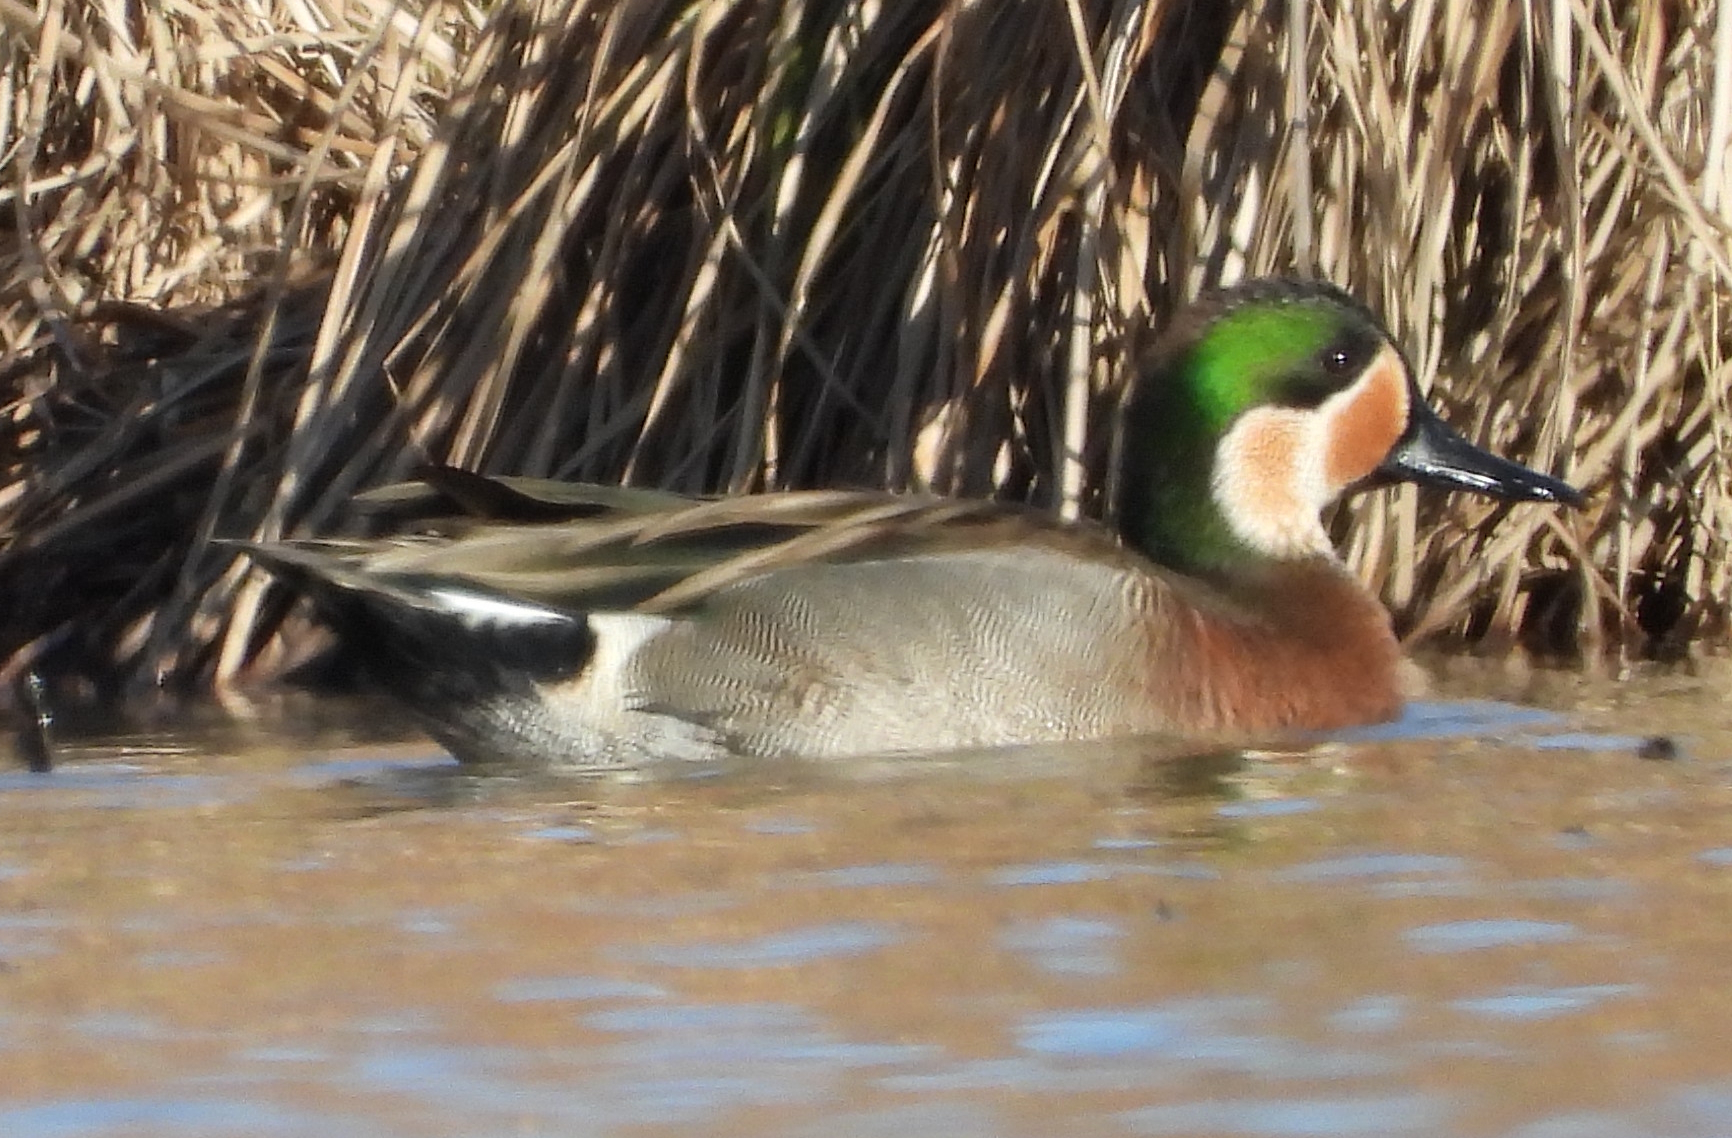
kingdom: Animalia
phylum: Chordata
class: Aves
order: Anseriformes
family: Anatidae
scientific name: Anatidae
